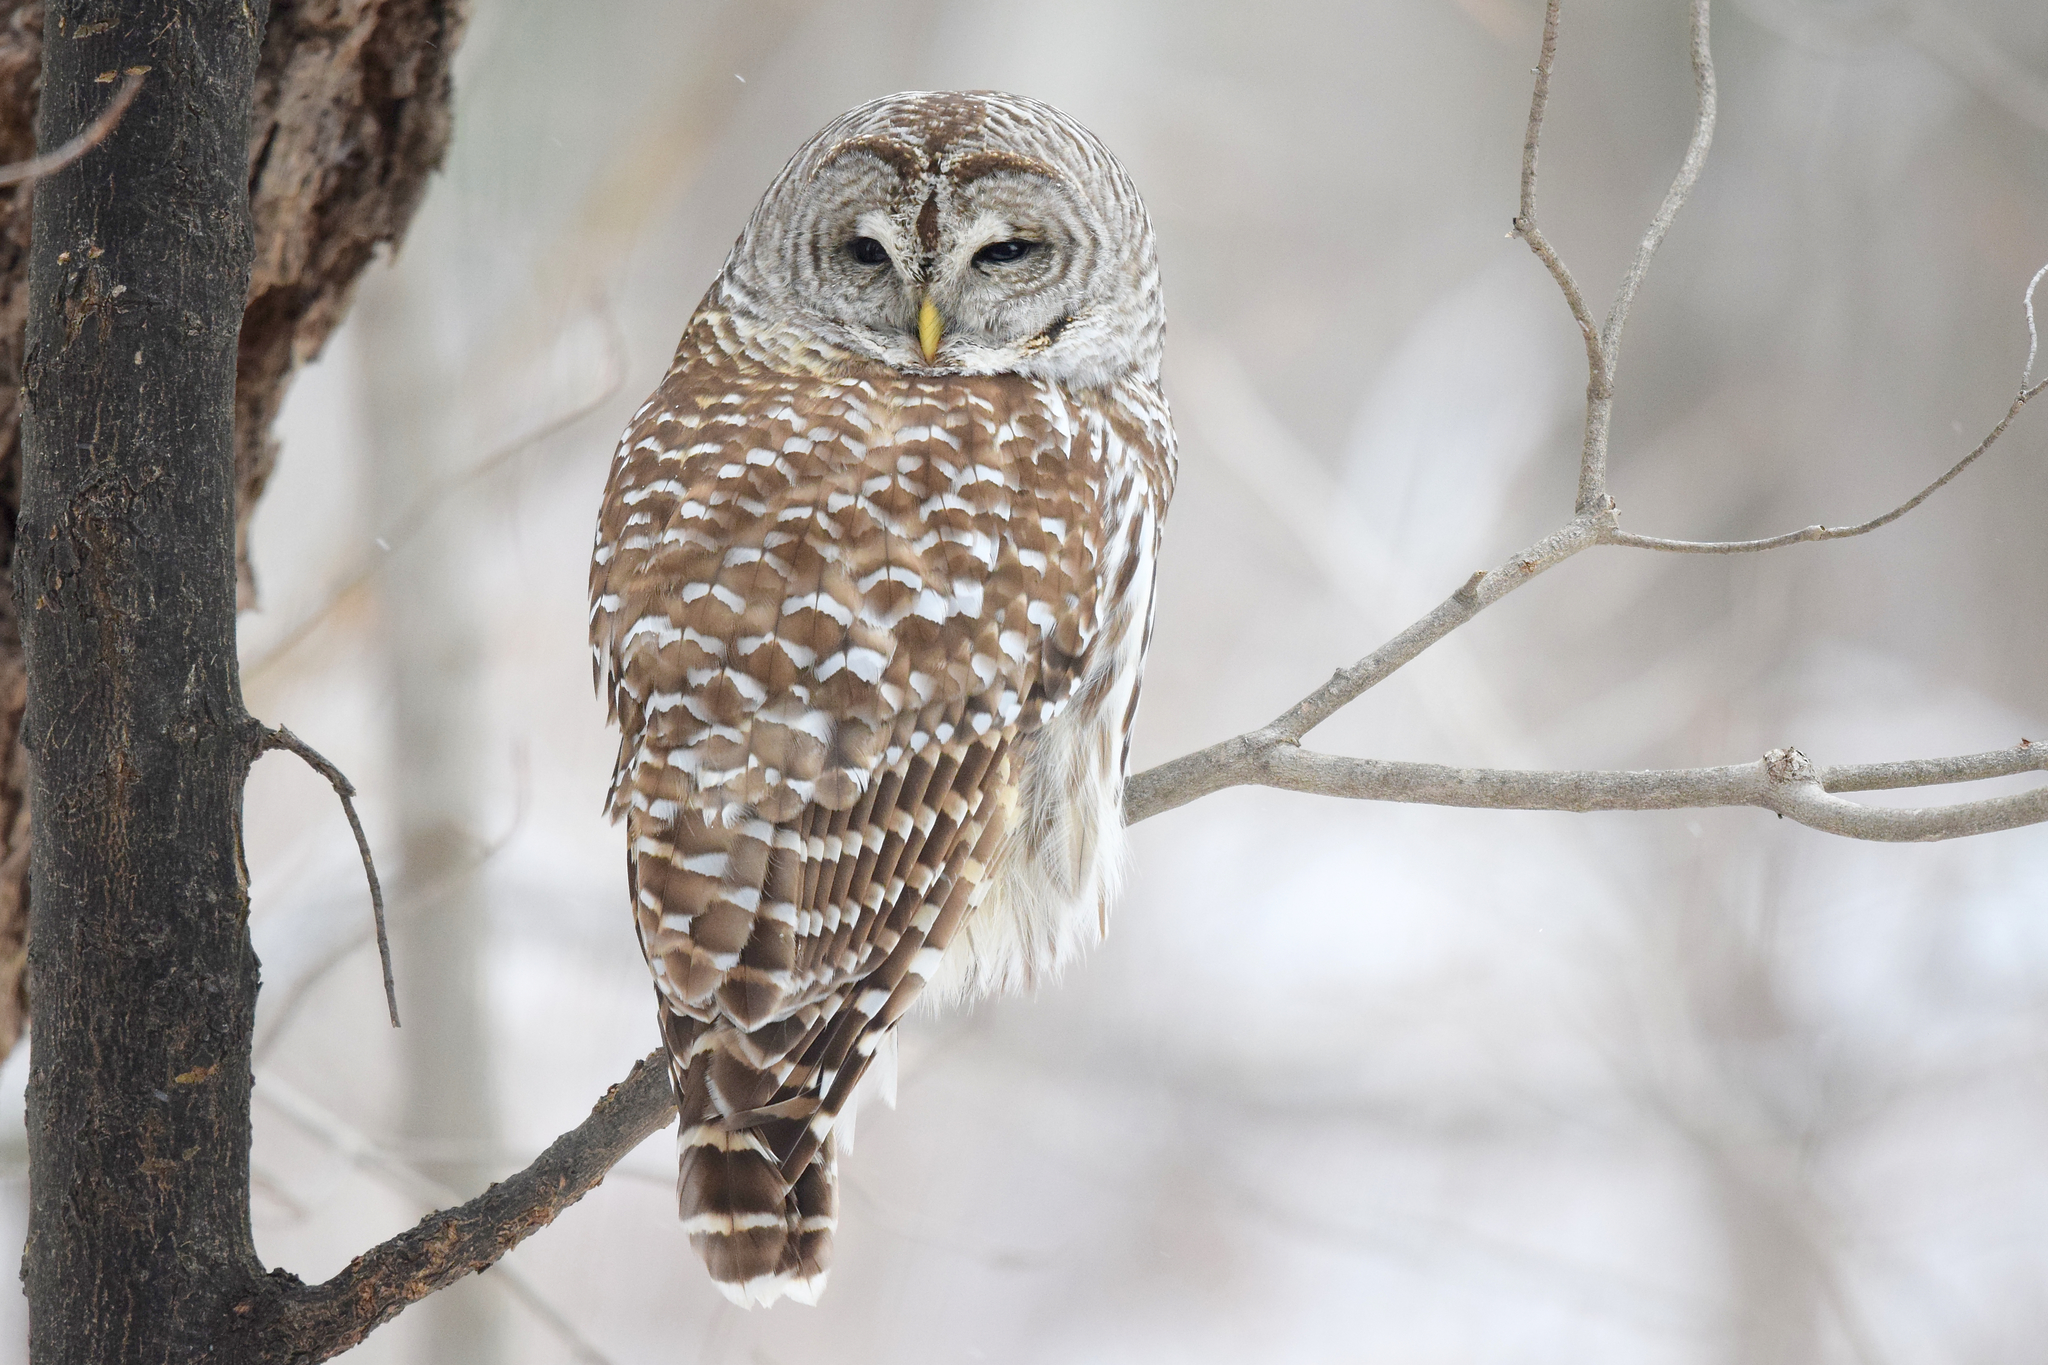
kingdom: Animalia
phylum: Chordata
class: Aves
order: Strigiformes
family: Strigidae
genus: Strix
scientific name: Strix varia
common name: Barred owl
